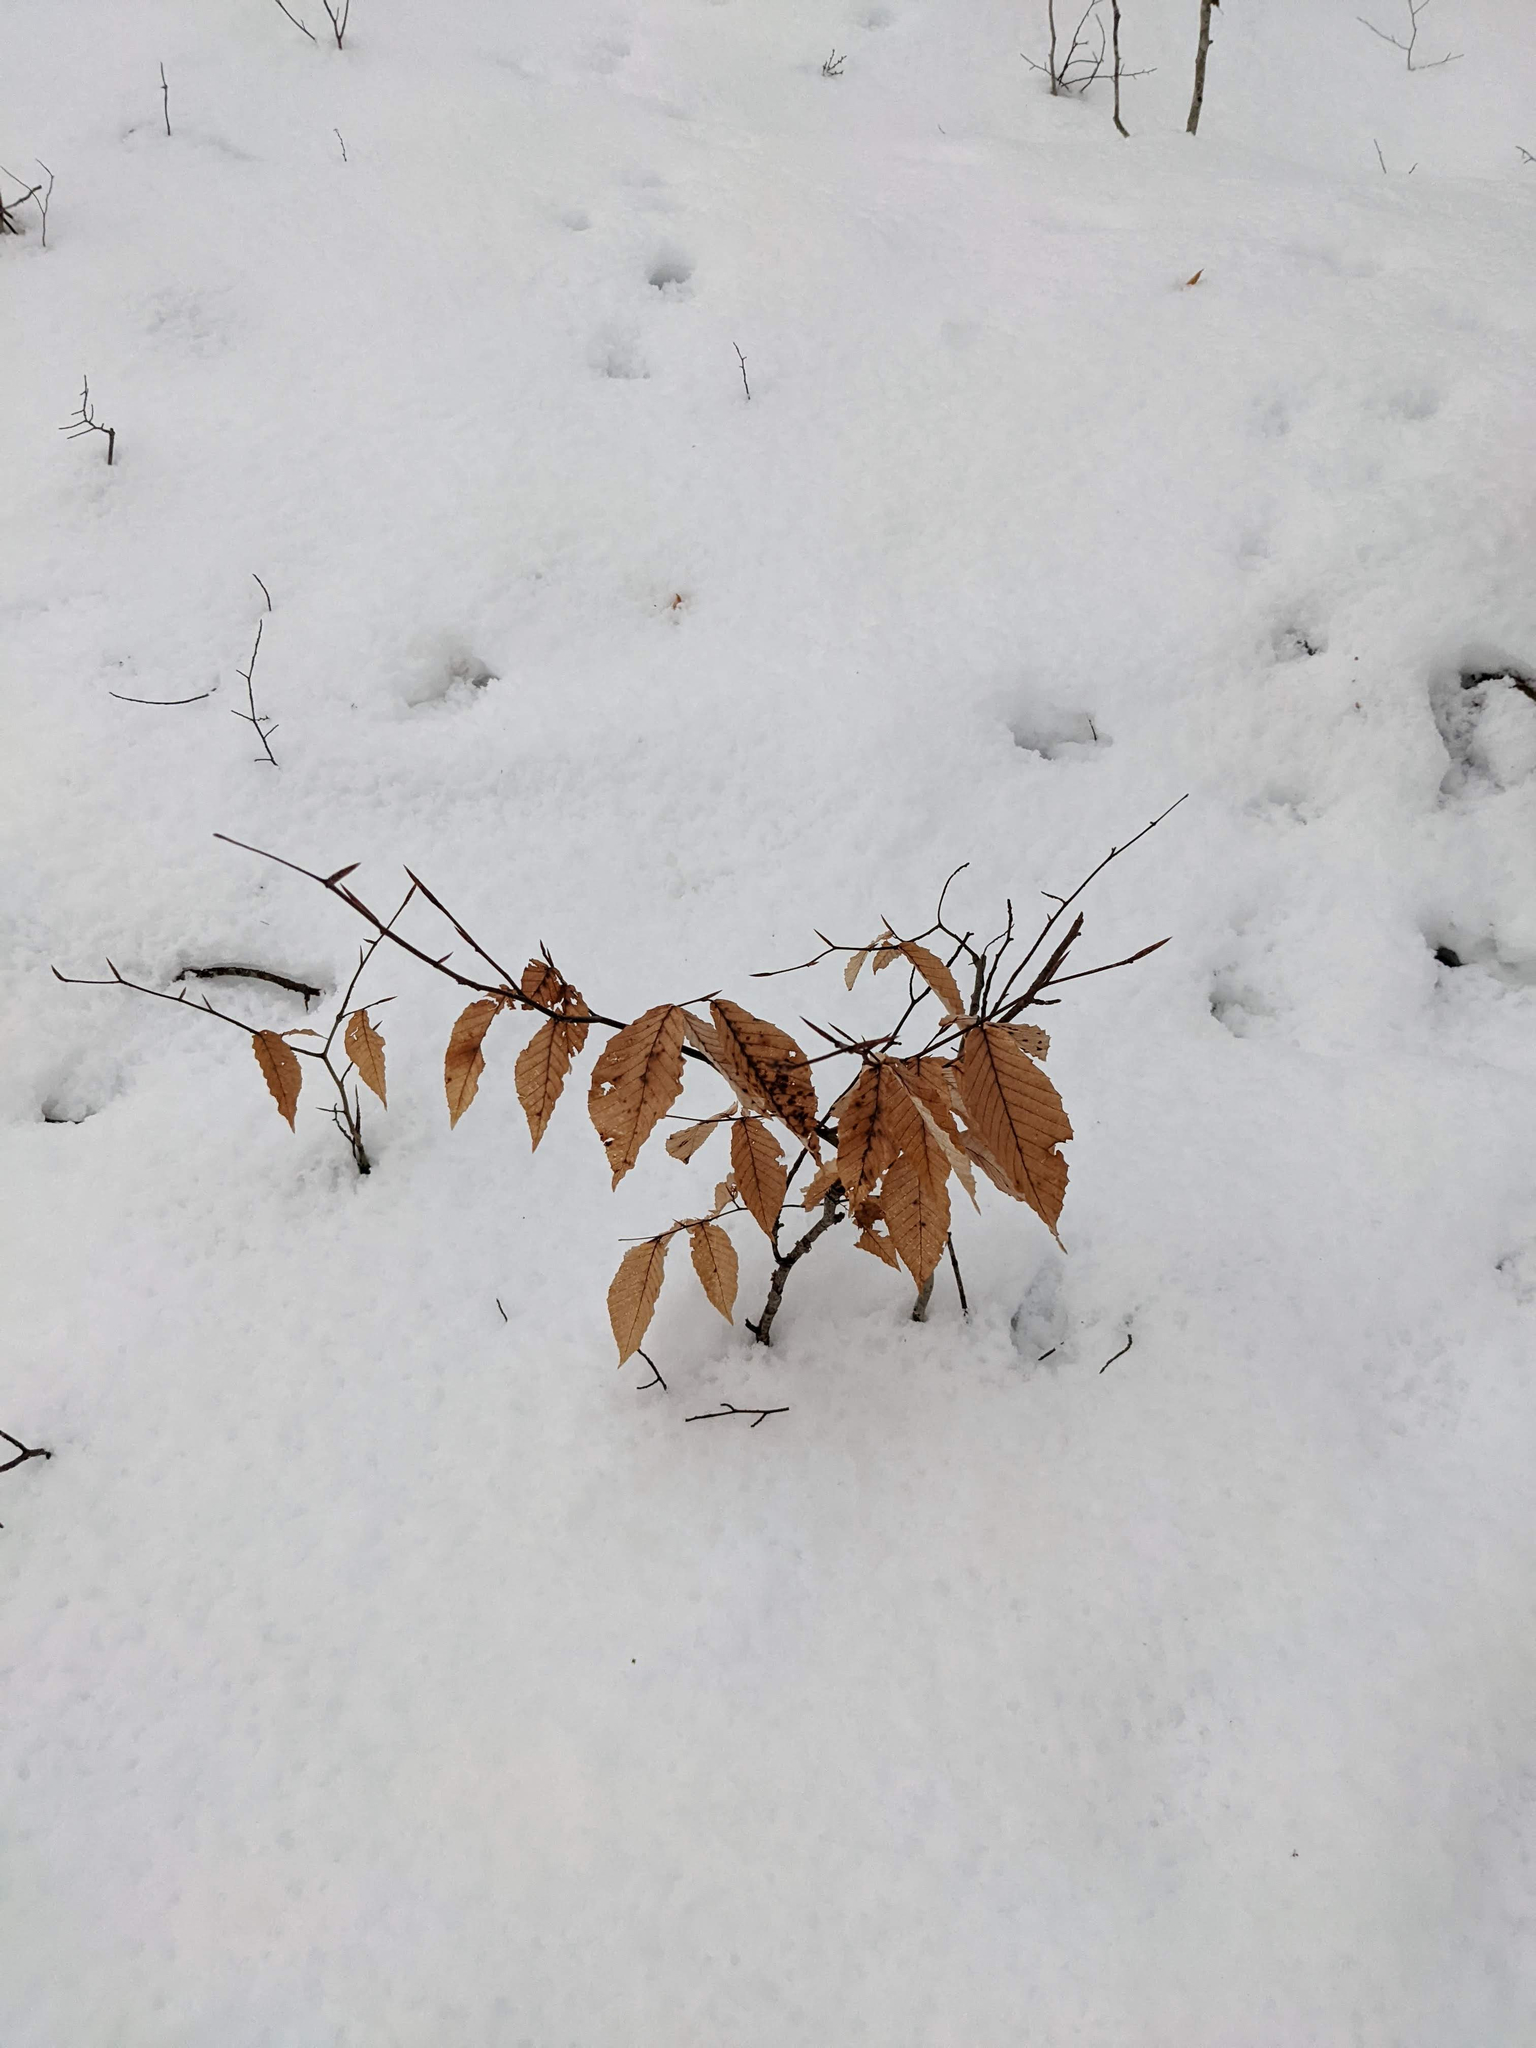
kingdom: Plantae
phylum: Tracheophyta
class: Magnoliopsida
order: Fagales
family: Fagaceae
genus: Fagus
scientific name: Fagus grandifolia
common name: American beech
